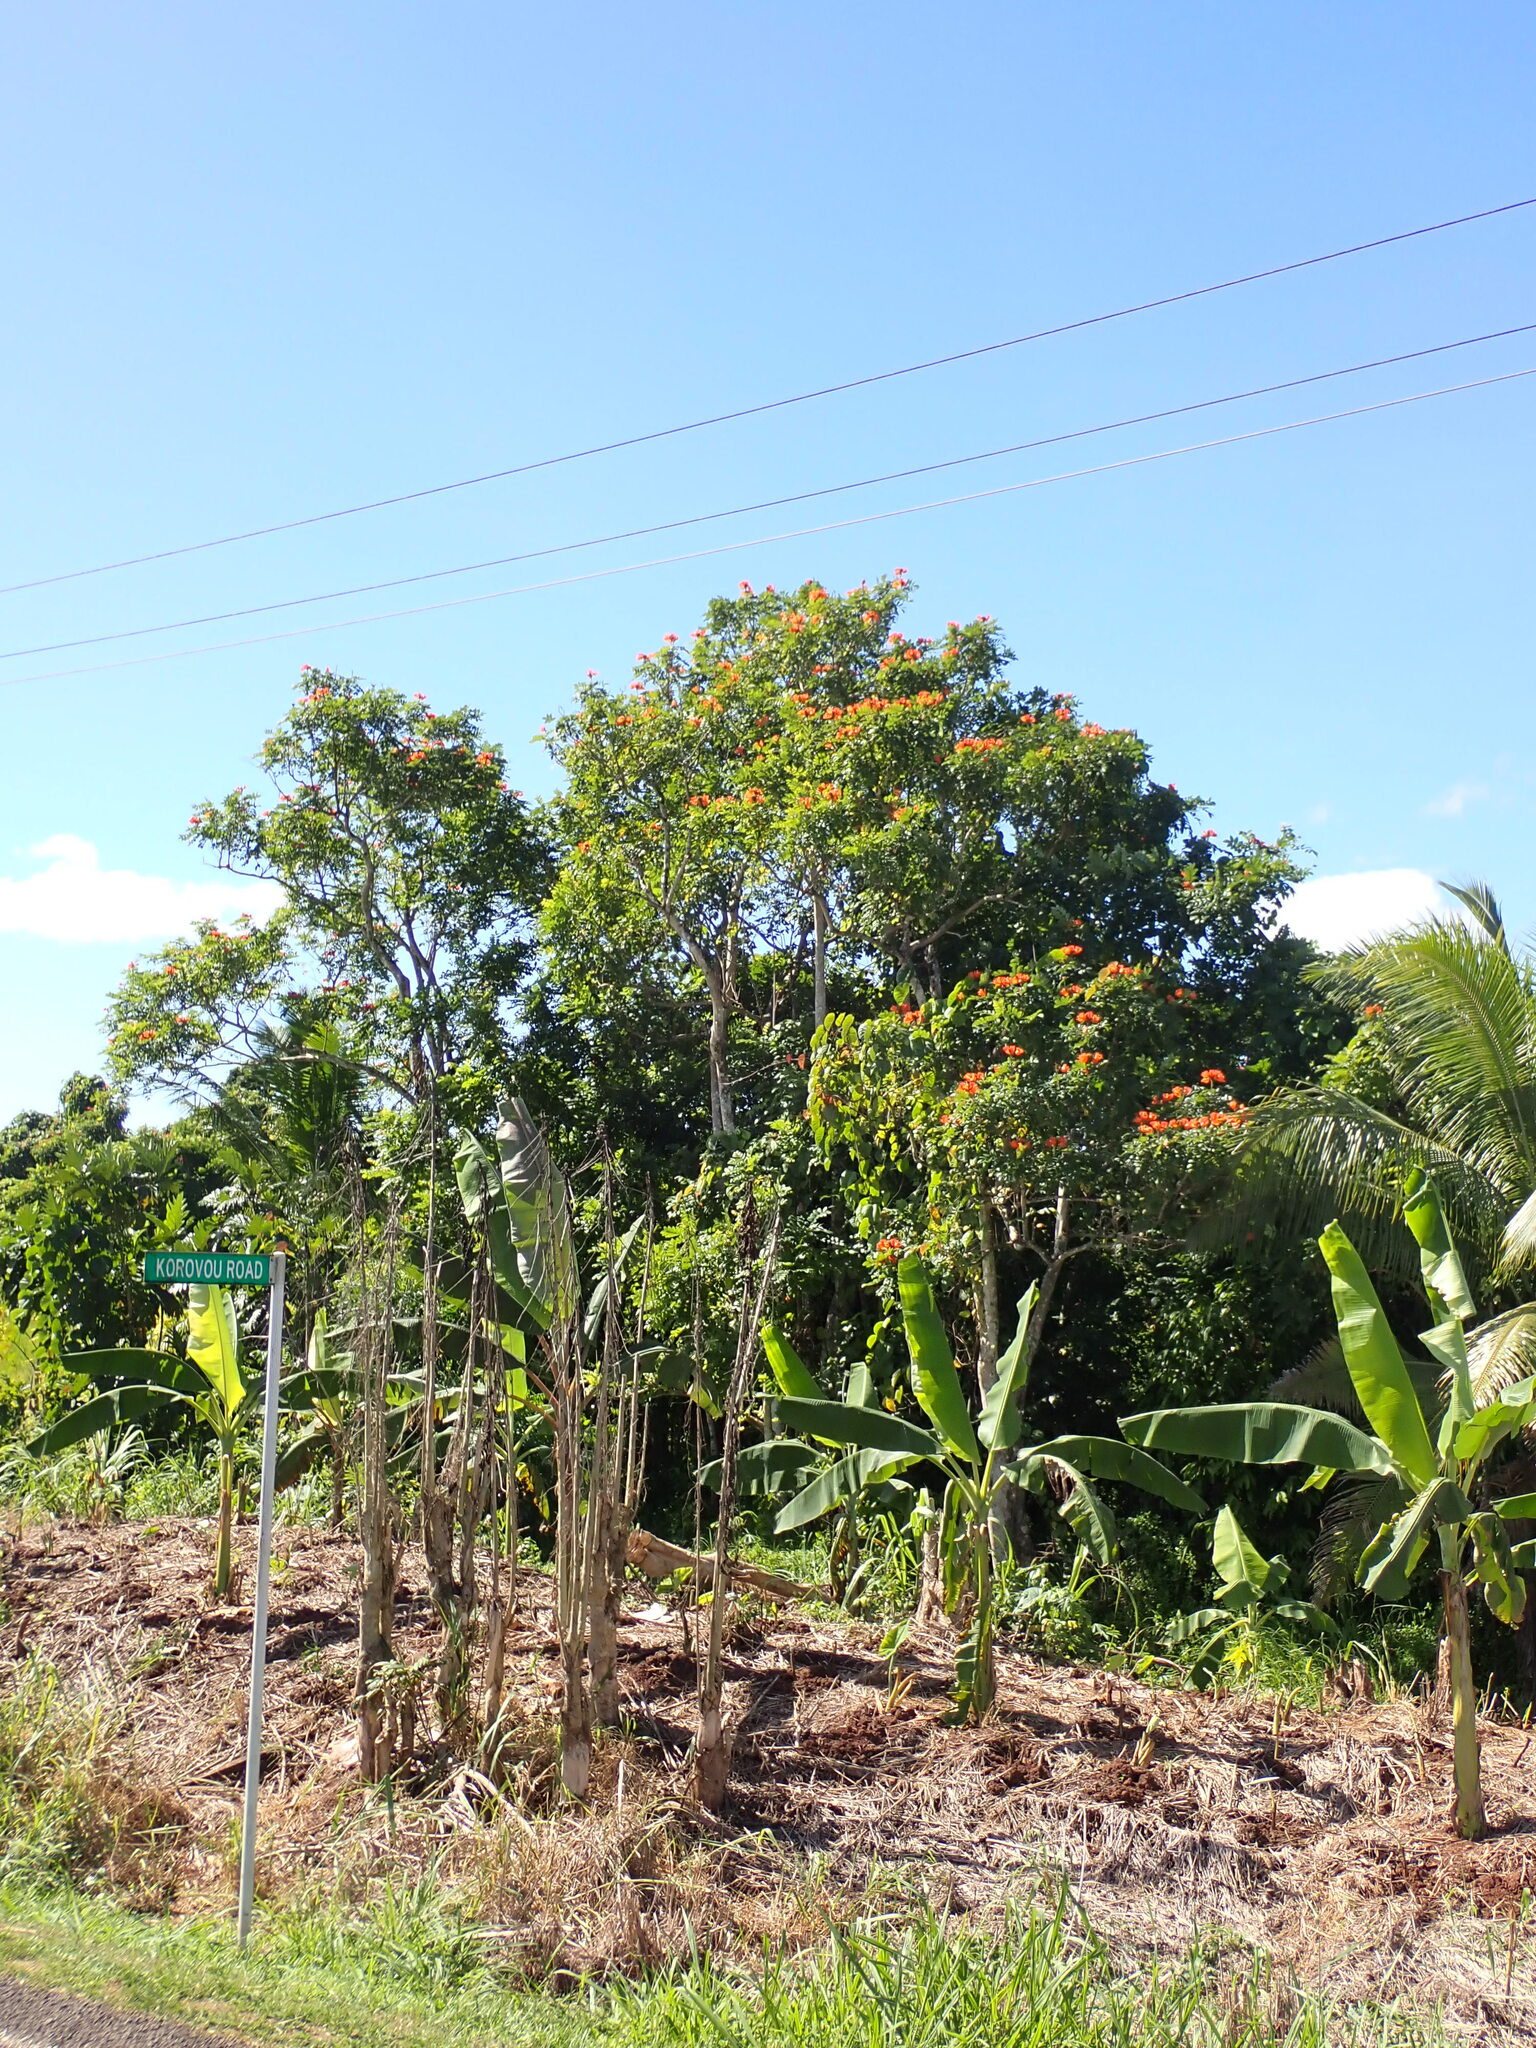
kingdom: Plantae
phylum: Tracheophyta
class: Magnoliopsida
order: Lamiales
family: Bignoniaceae
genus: Spathodea
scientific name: Spathodea campanulata
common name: African tuliptree
